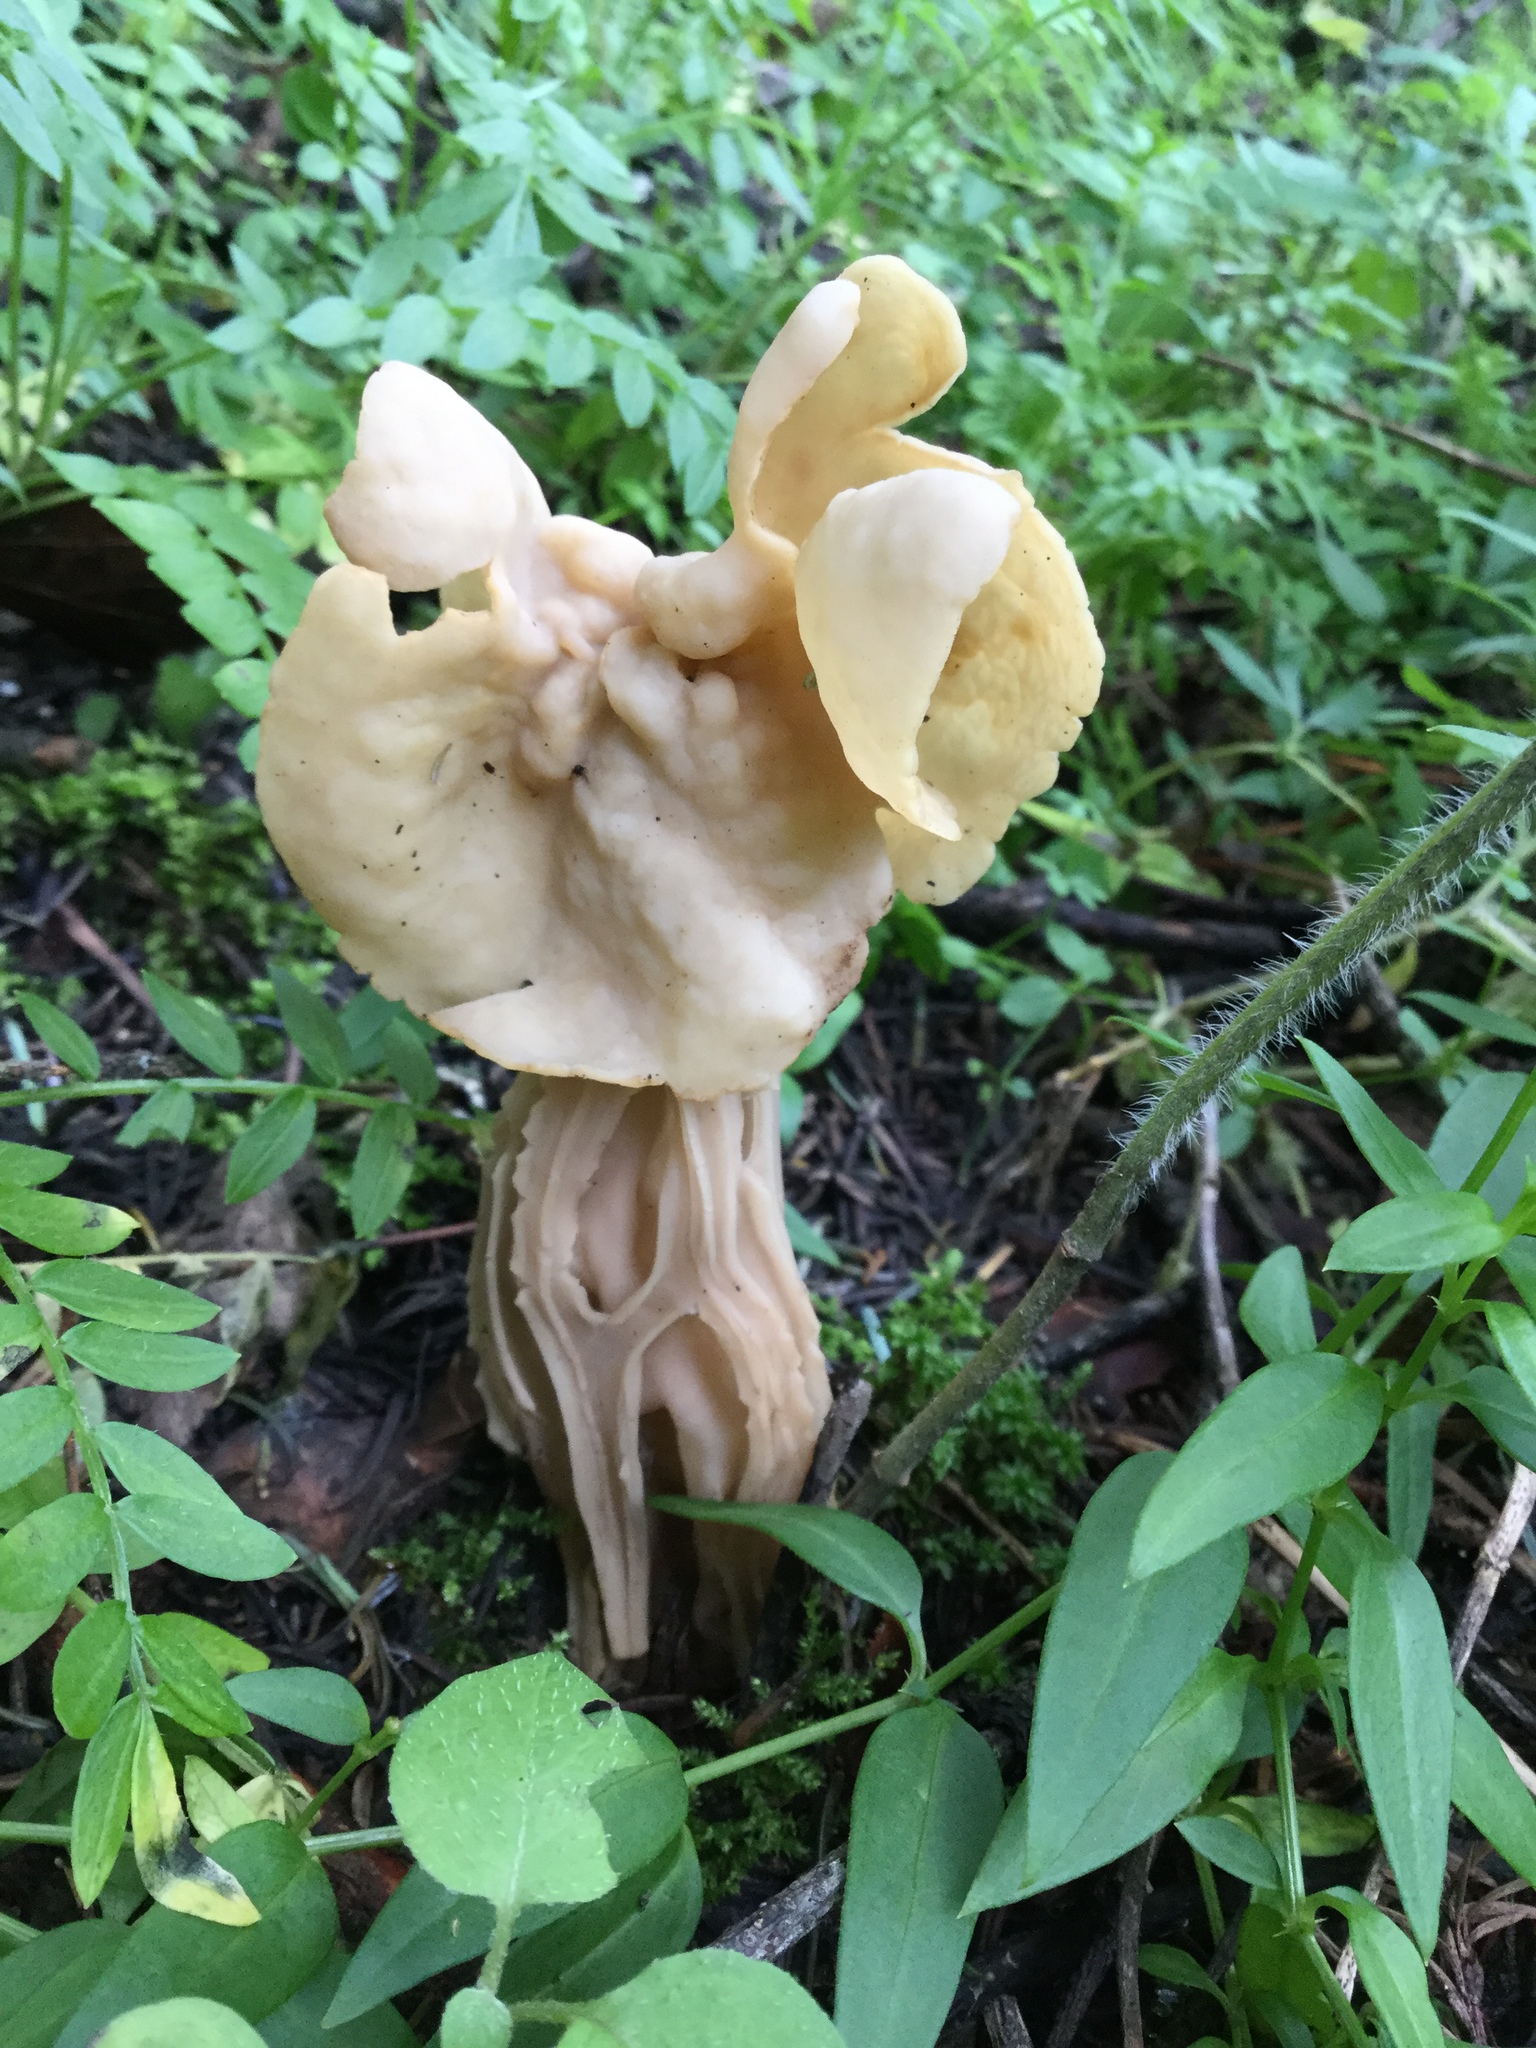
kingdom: Fungi
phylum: Ascomycota
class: Pezizomycetes
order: Pezizales
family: Helvellaceae
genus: Helvella
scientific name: Helvella crispa
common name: White saddle
